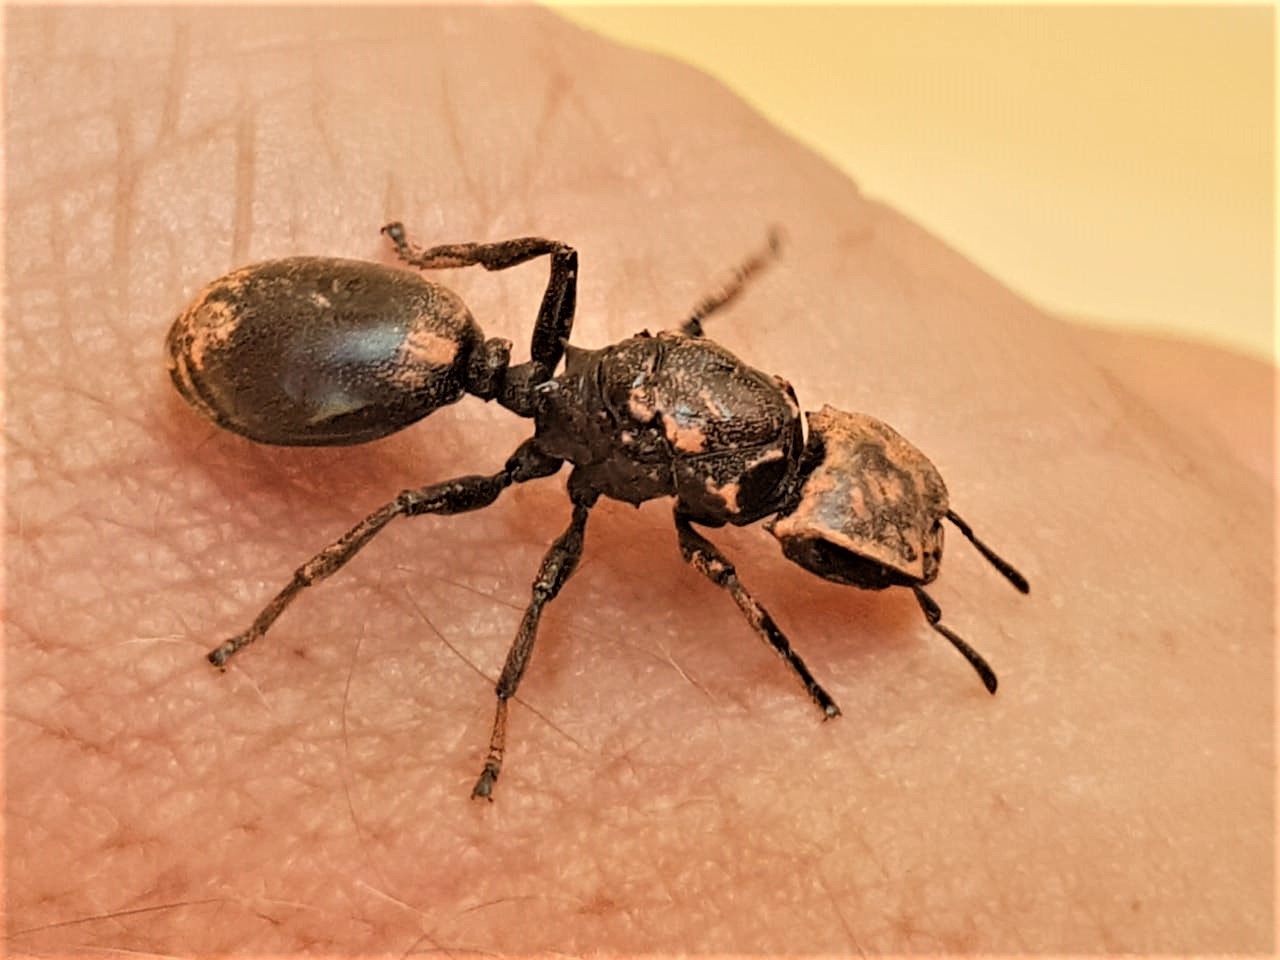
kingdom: Animalia
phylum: Arthropoda
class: Insecta
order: Hymenoptera
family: Formicidae
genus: Cephalotes
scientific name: Cephalotes atratus
